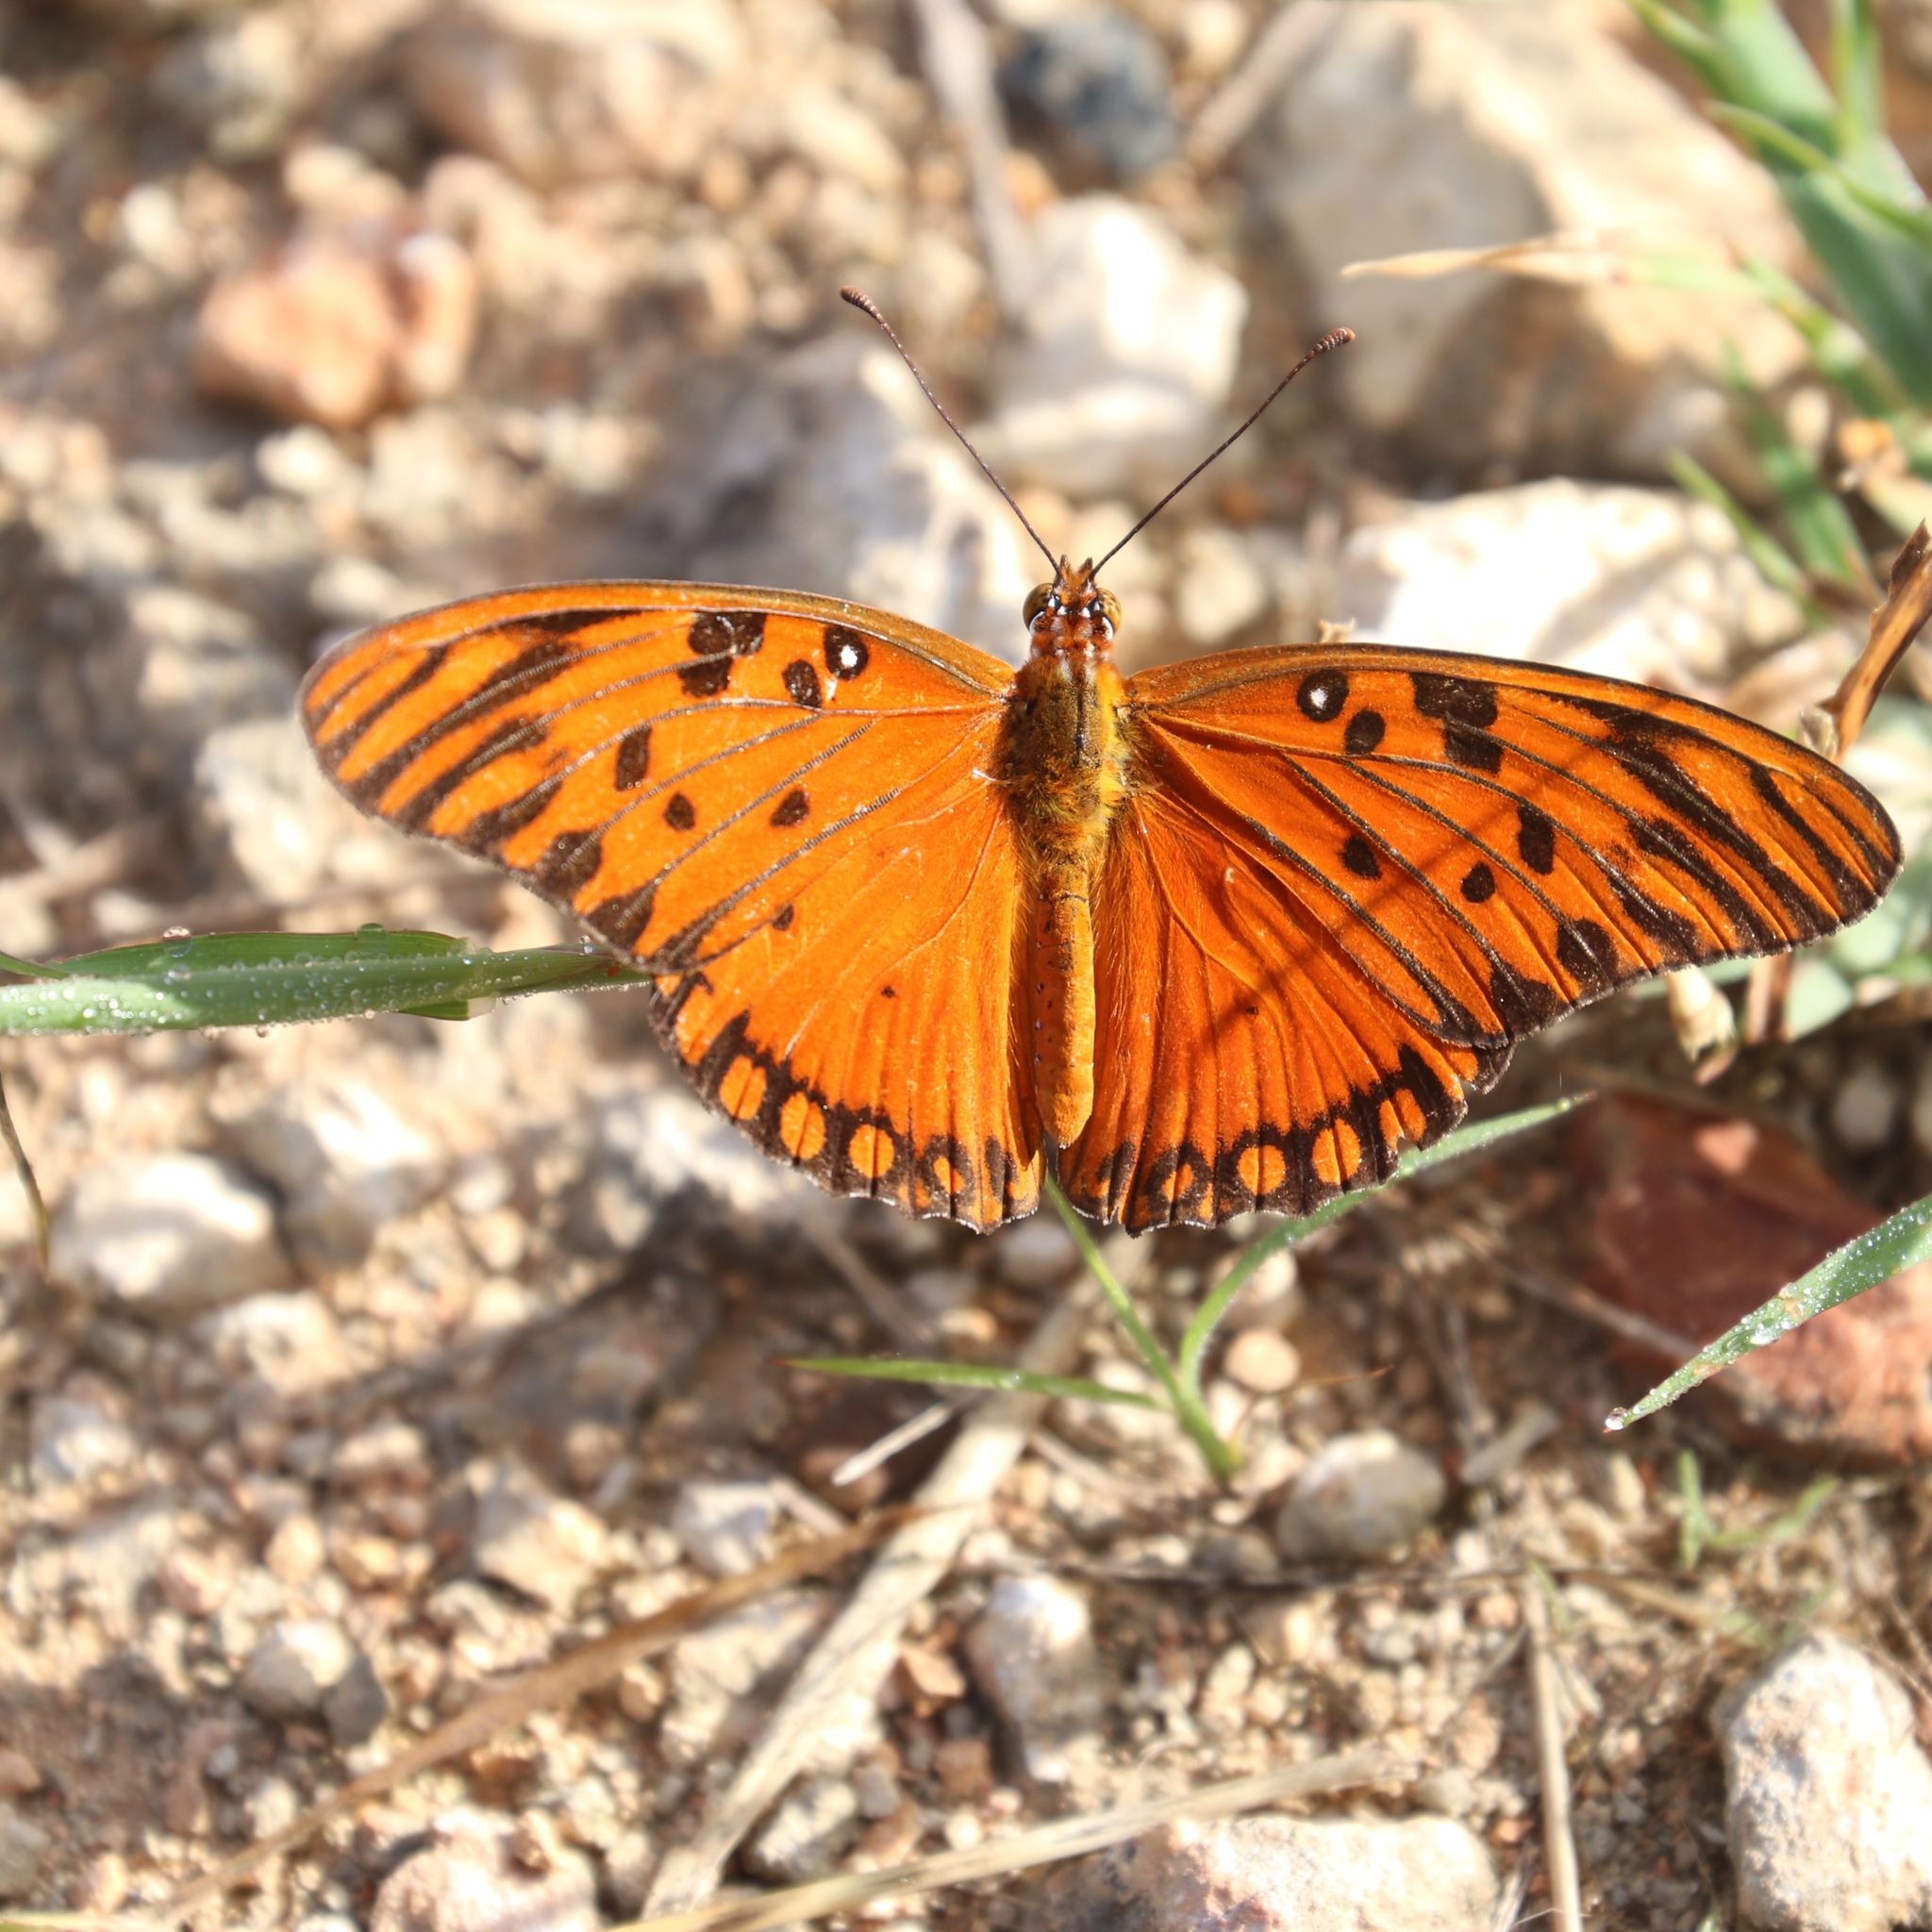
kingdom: Animalia
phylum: Arthropoda
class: Insecta
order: Lepidoptera
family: Nymphalidae
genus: Dione
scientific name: Dione vanillae
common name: Gulf fritillary
